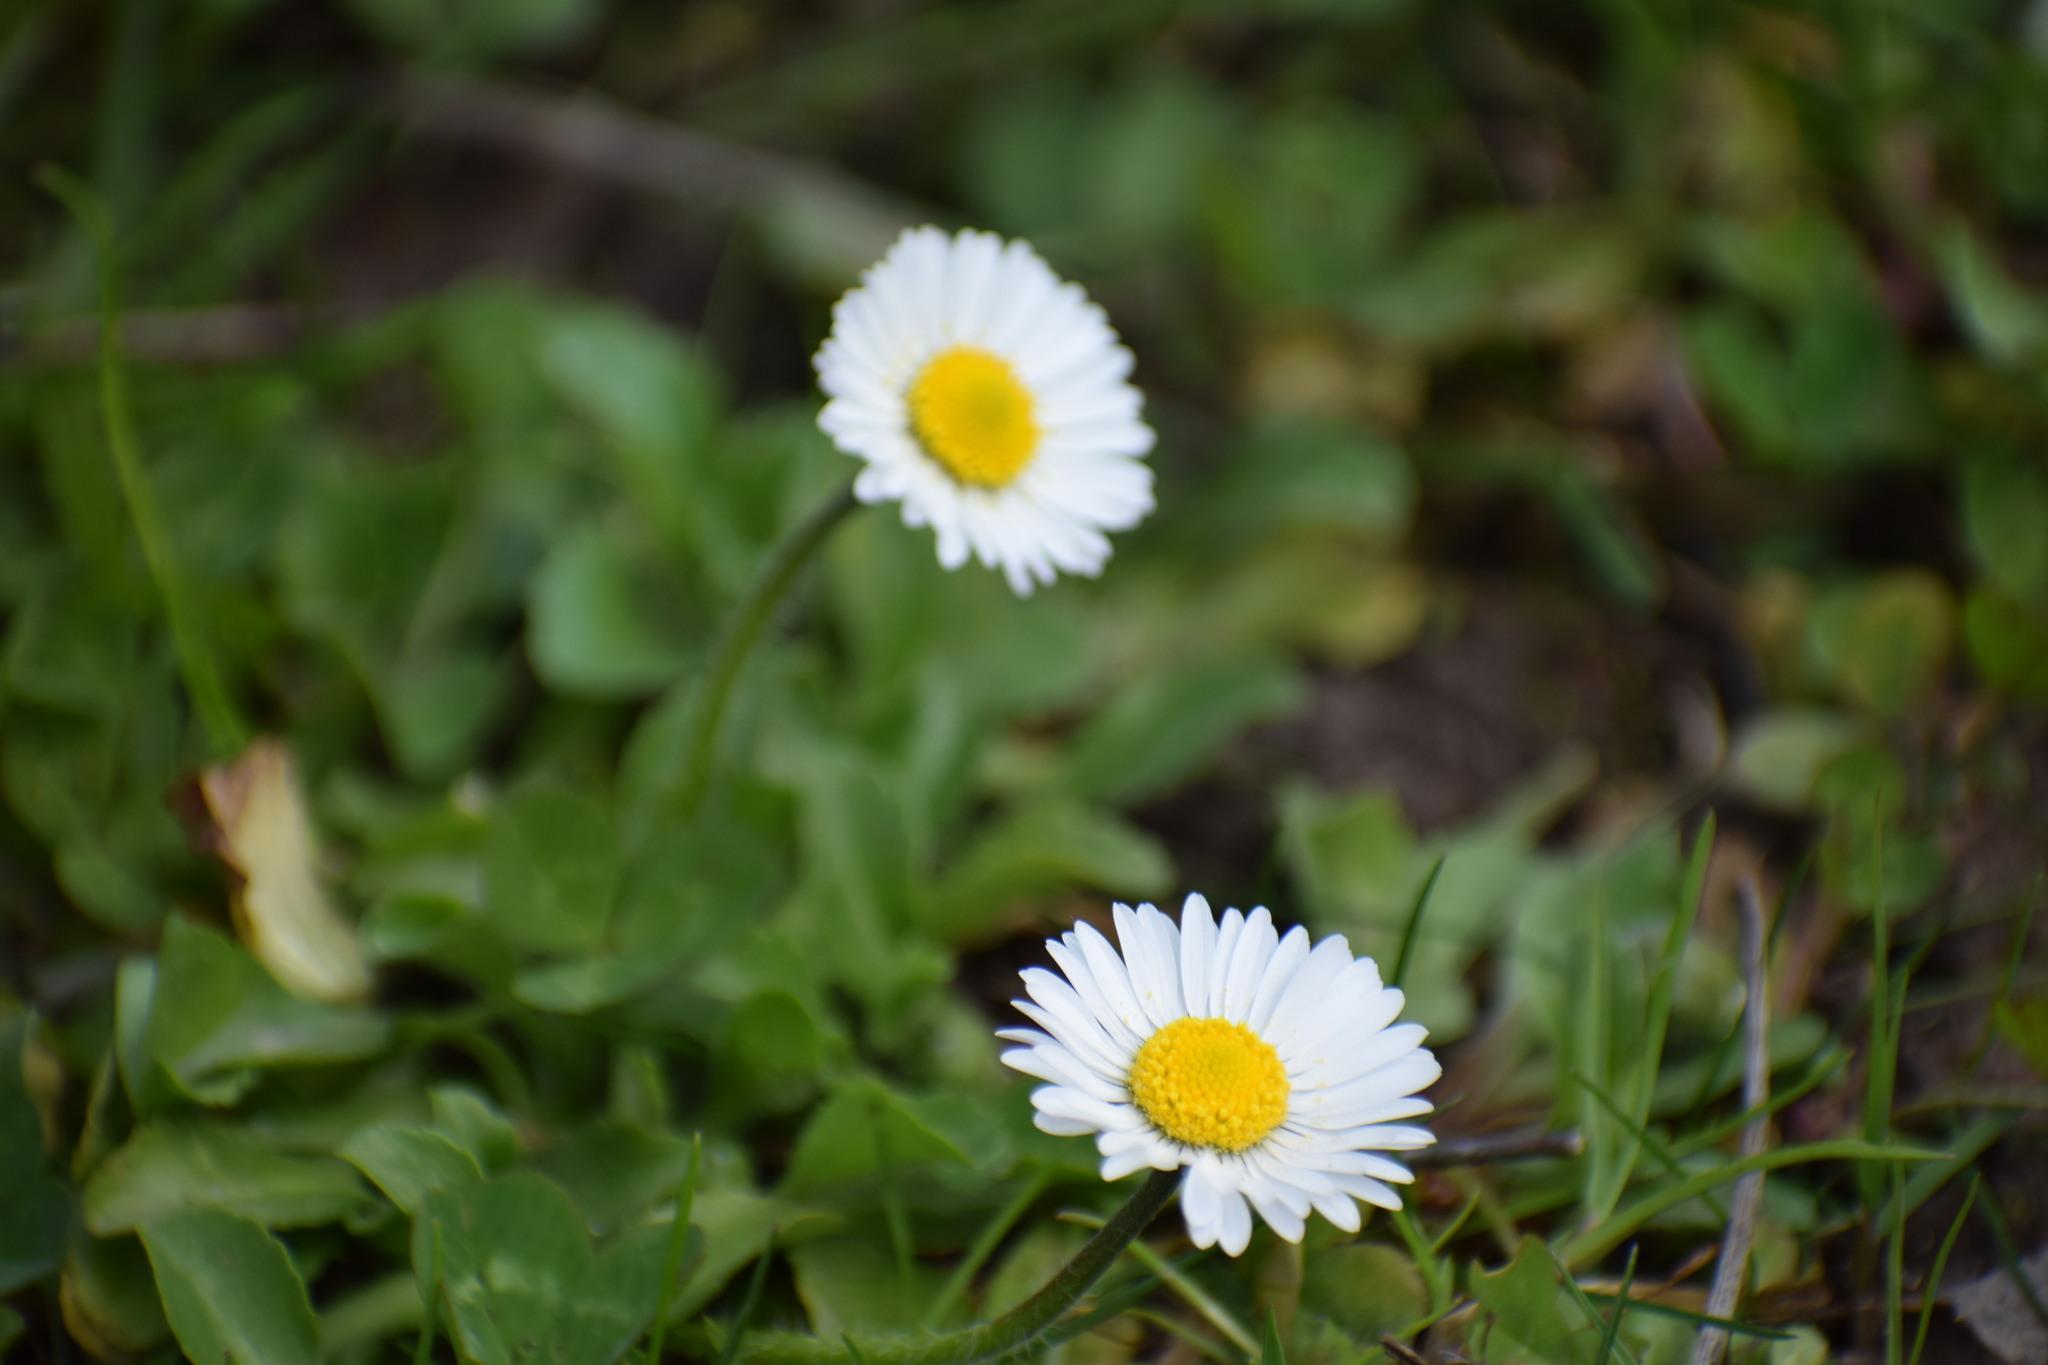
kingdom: Plantae
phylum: Tracheophyta
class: Magnoliopsida
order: Asterales
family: Asteraceae
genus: Bellis
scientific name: Bellis perennis
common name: Lawndaisy
